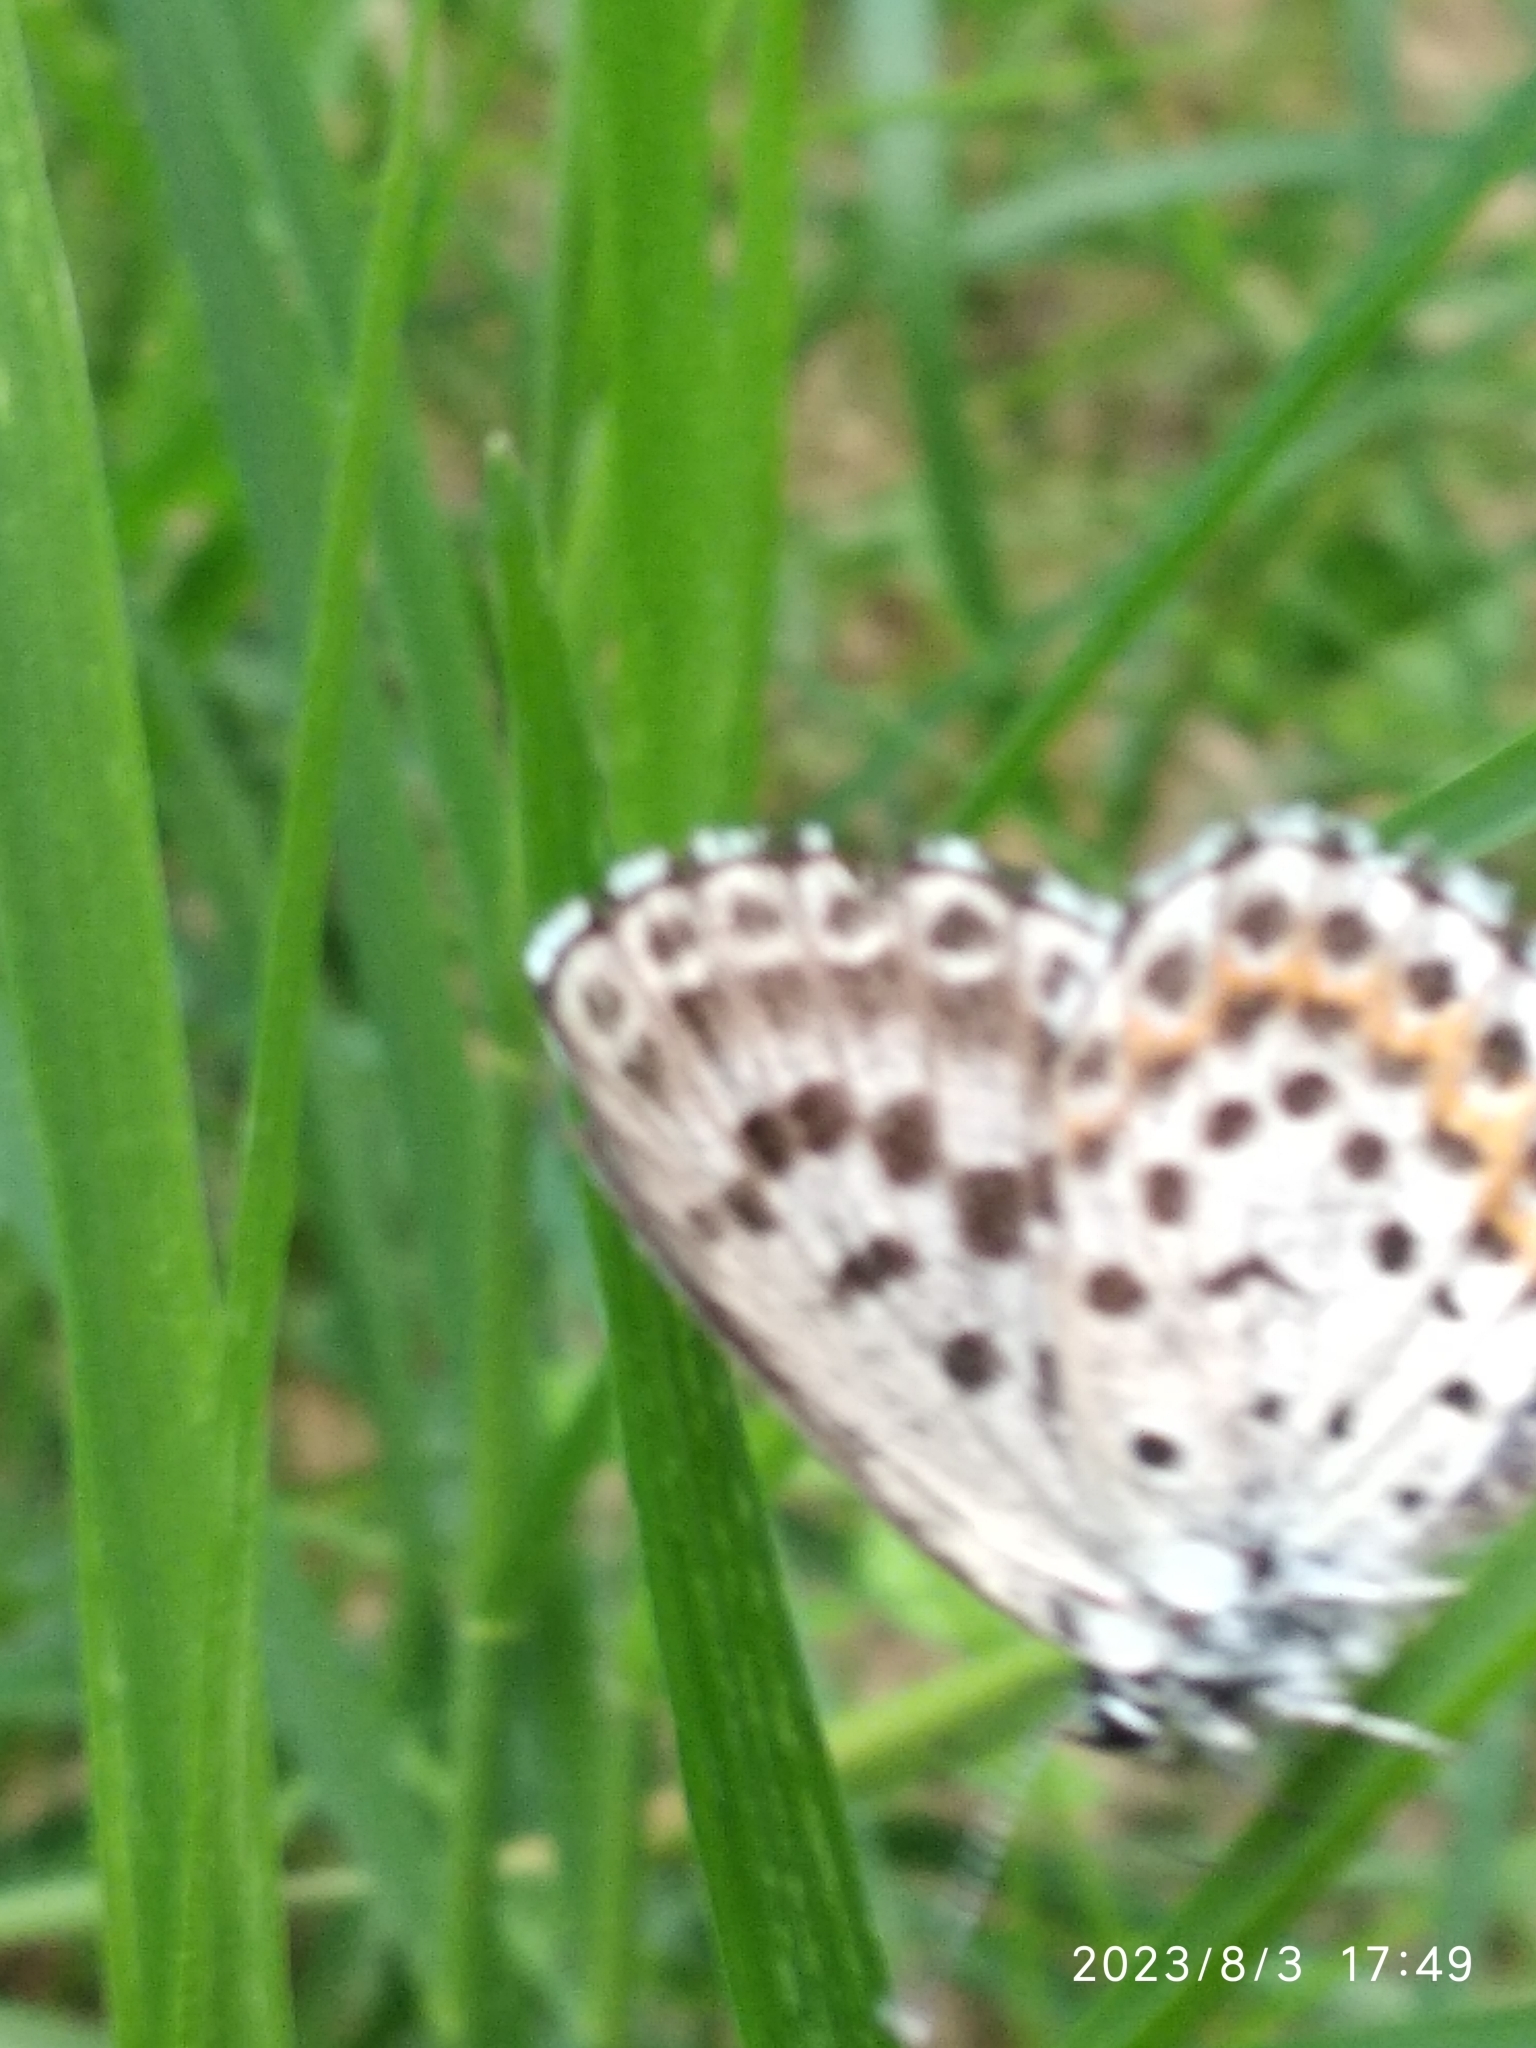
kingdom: Animalia
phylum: Arthropoda
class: Insecta
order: Lepidoptera
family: Lycaenidae
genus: Scolitantides
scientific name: Scolitantides orion
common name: Chequered blue
